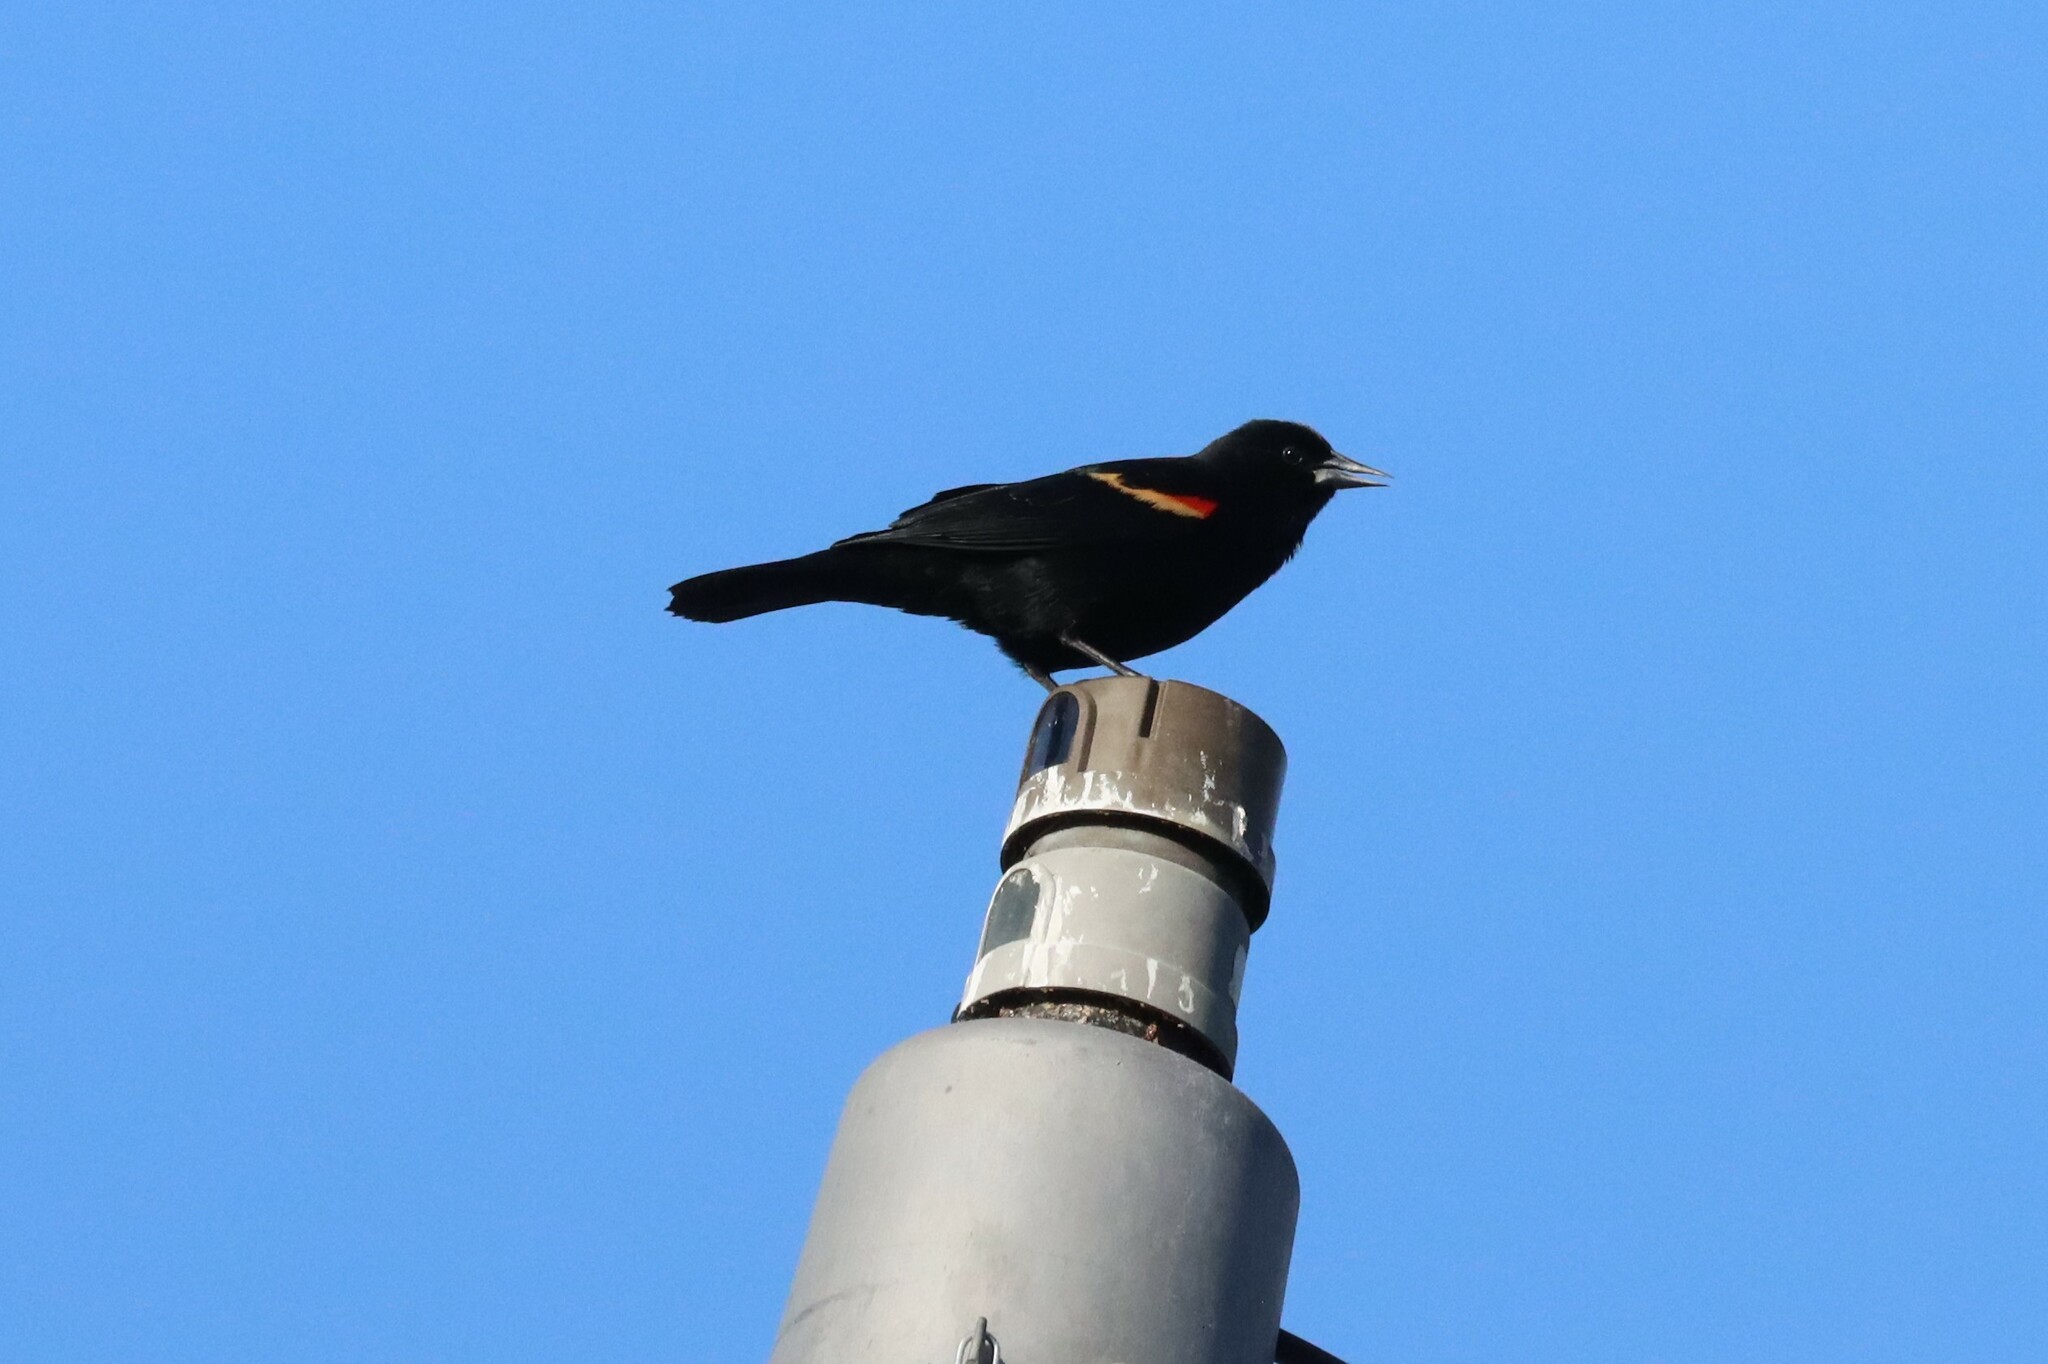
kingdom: Animalia
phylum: Chordata
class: Aves
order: Passeriformes
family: Icteridae
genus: Agelaius
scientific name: Agelaius phoeniceus
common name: Red-winged blackbird
